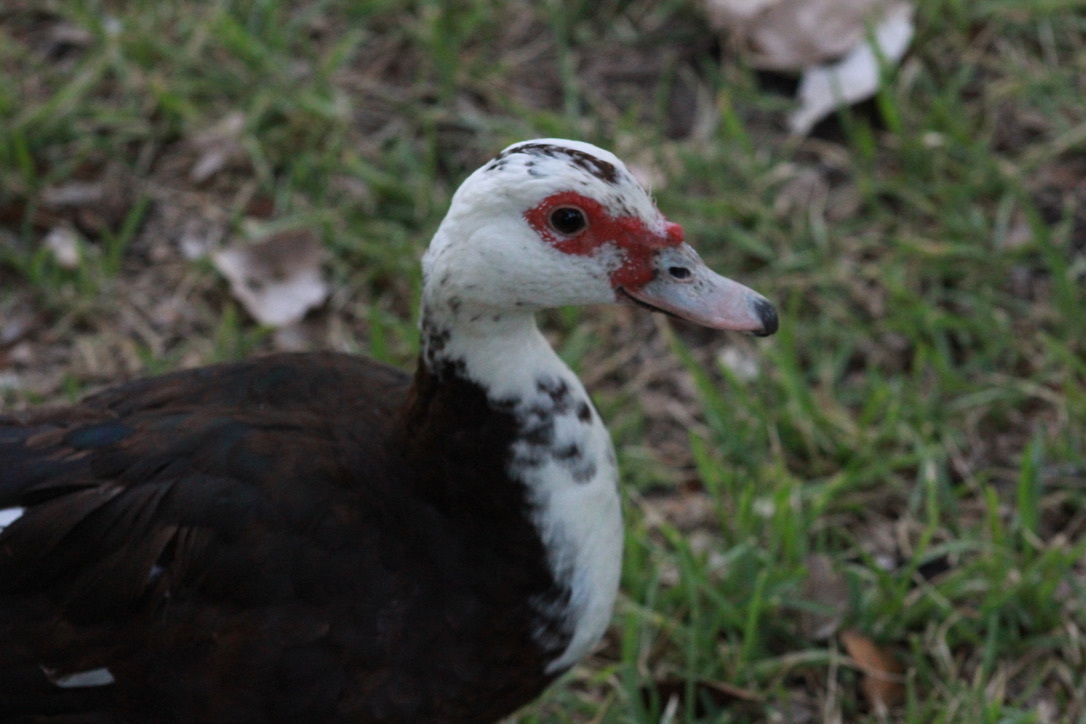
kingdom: Animalia
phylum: Chordata
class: Aves
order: Anseriformes
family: Anatidae
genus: Cairina
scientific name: Cairina moschata
